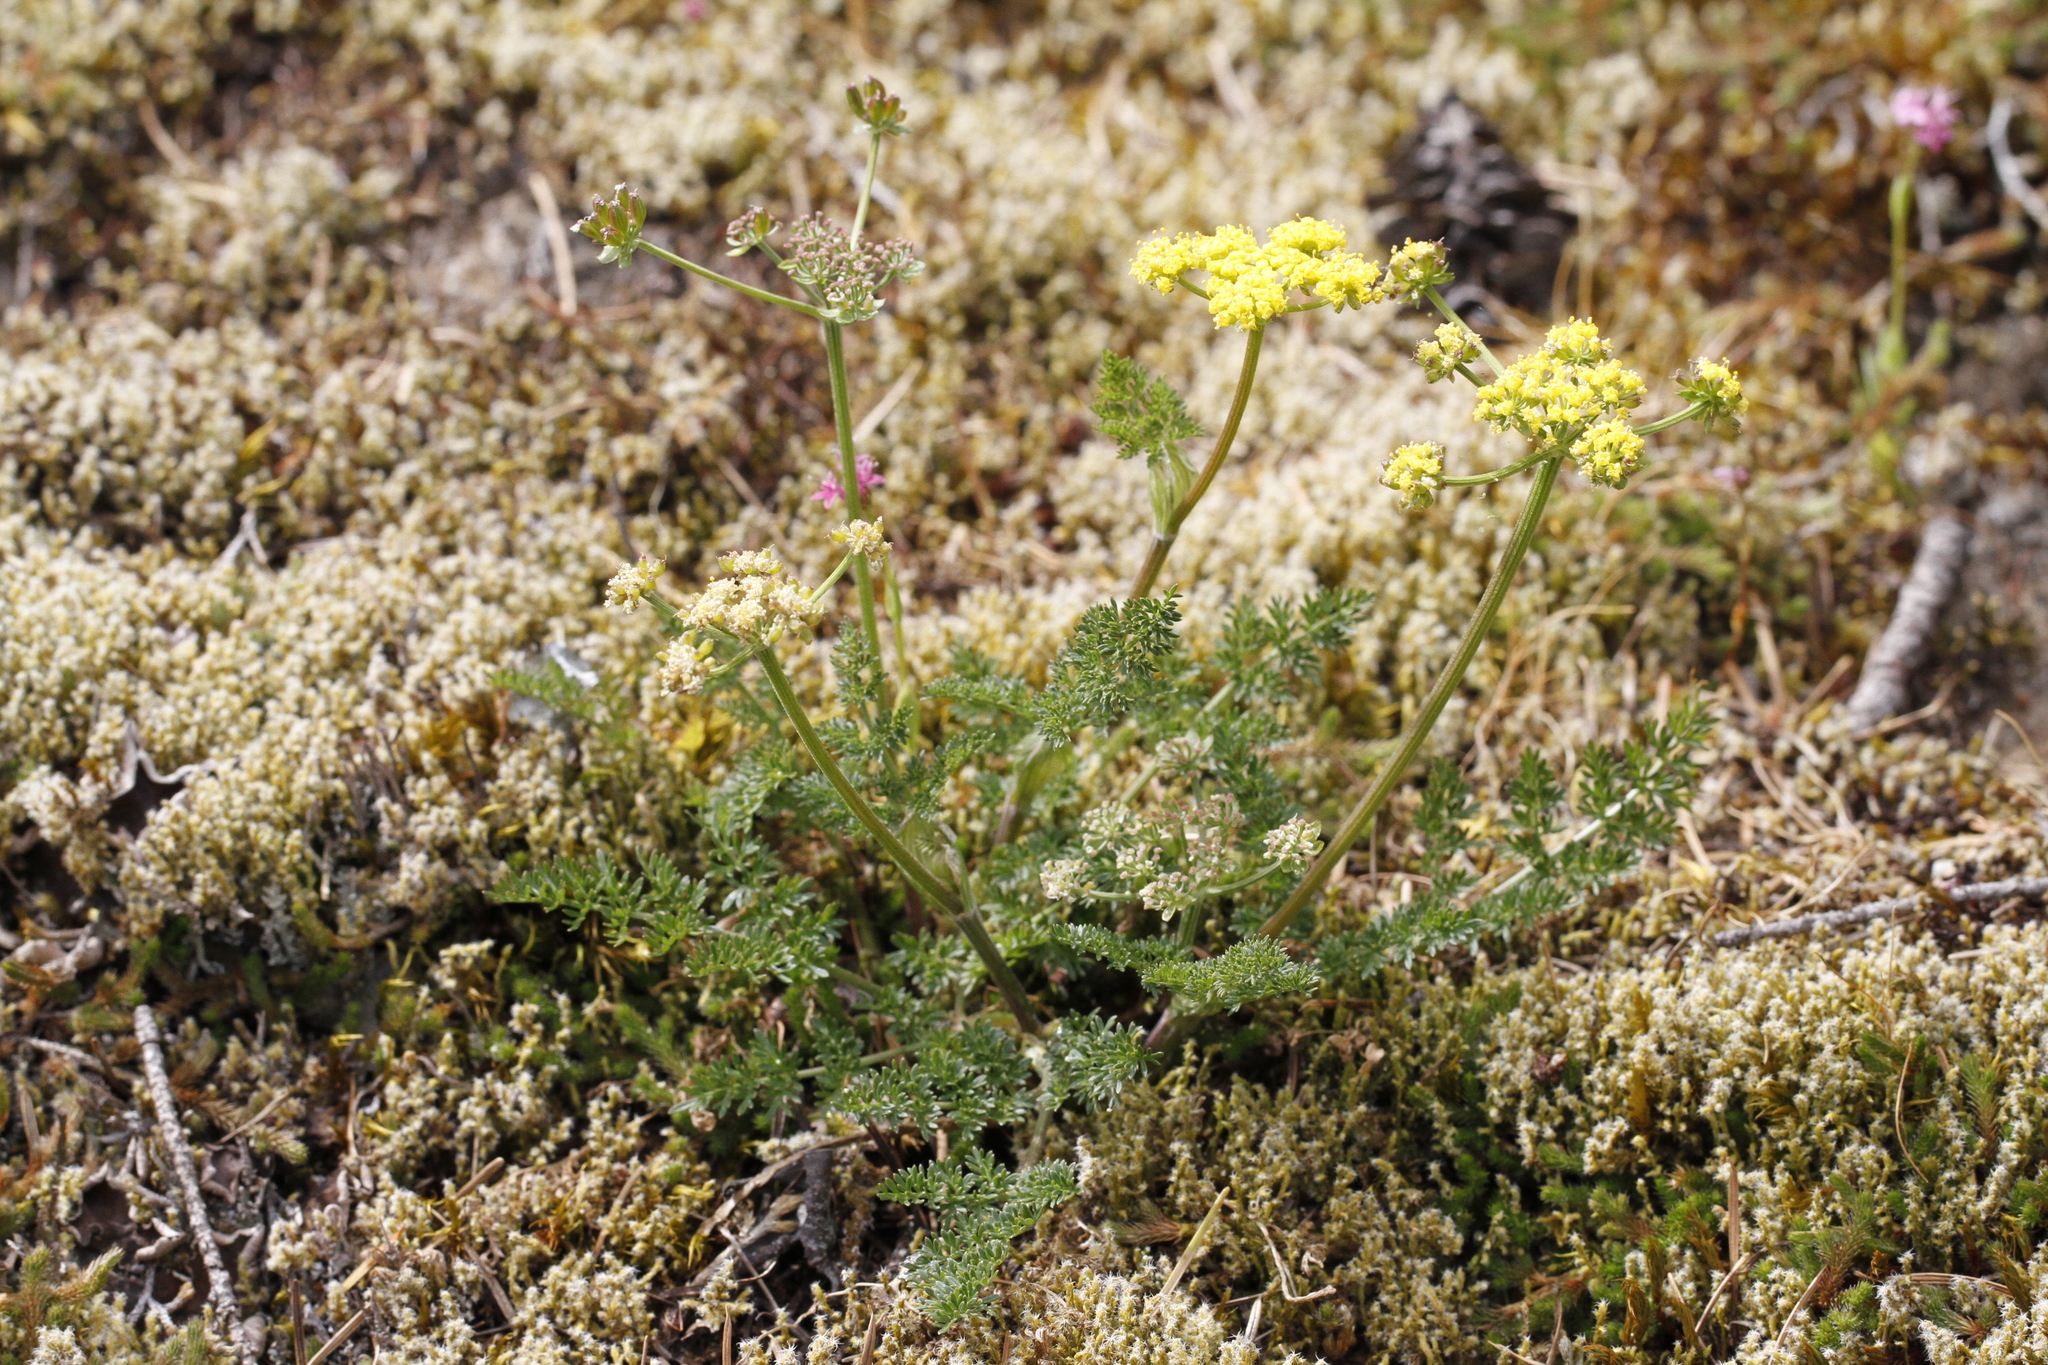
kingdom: Plantae
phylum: Tracheophyta
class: Magnoliopsida
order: Apiales
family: Apiaceae
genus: Lomatium
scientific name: Lomatium utriculatum
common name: Fine-leaf desert-parsley
